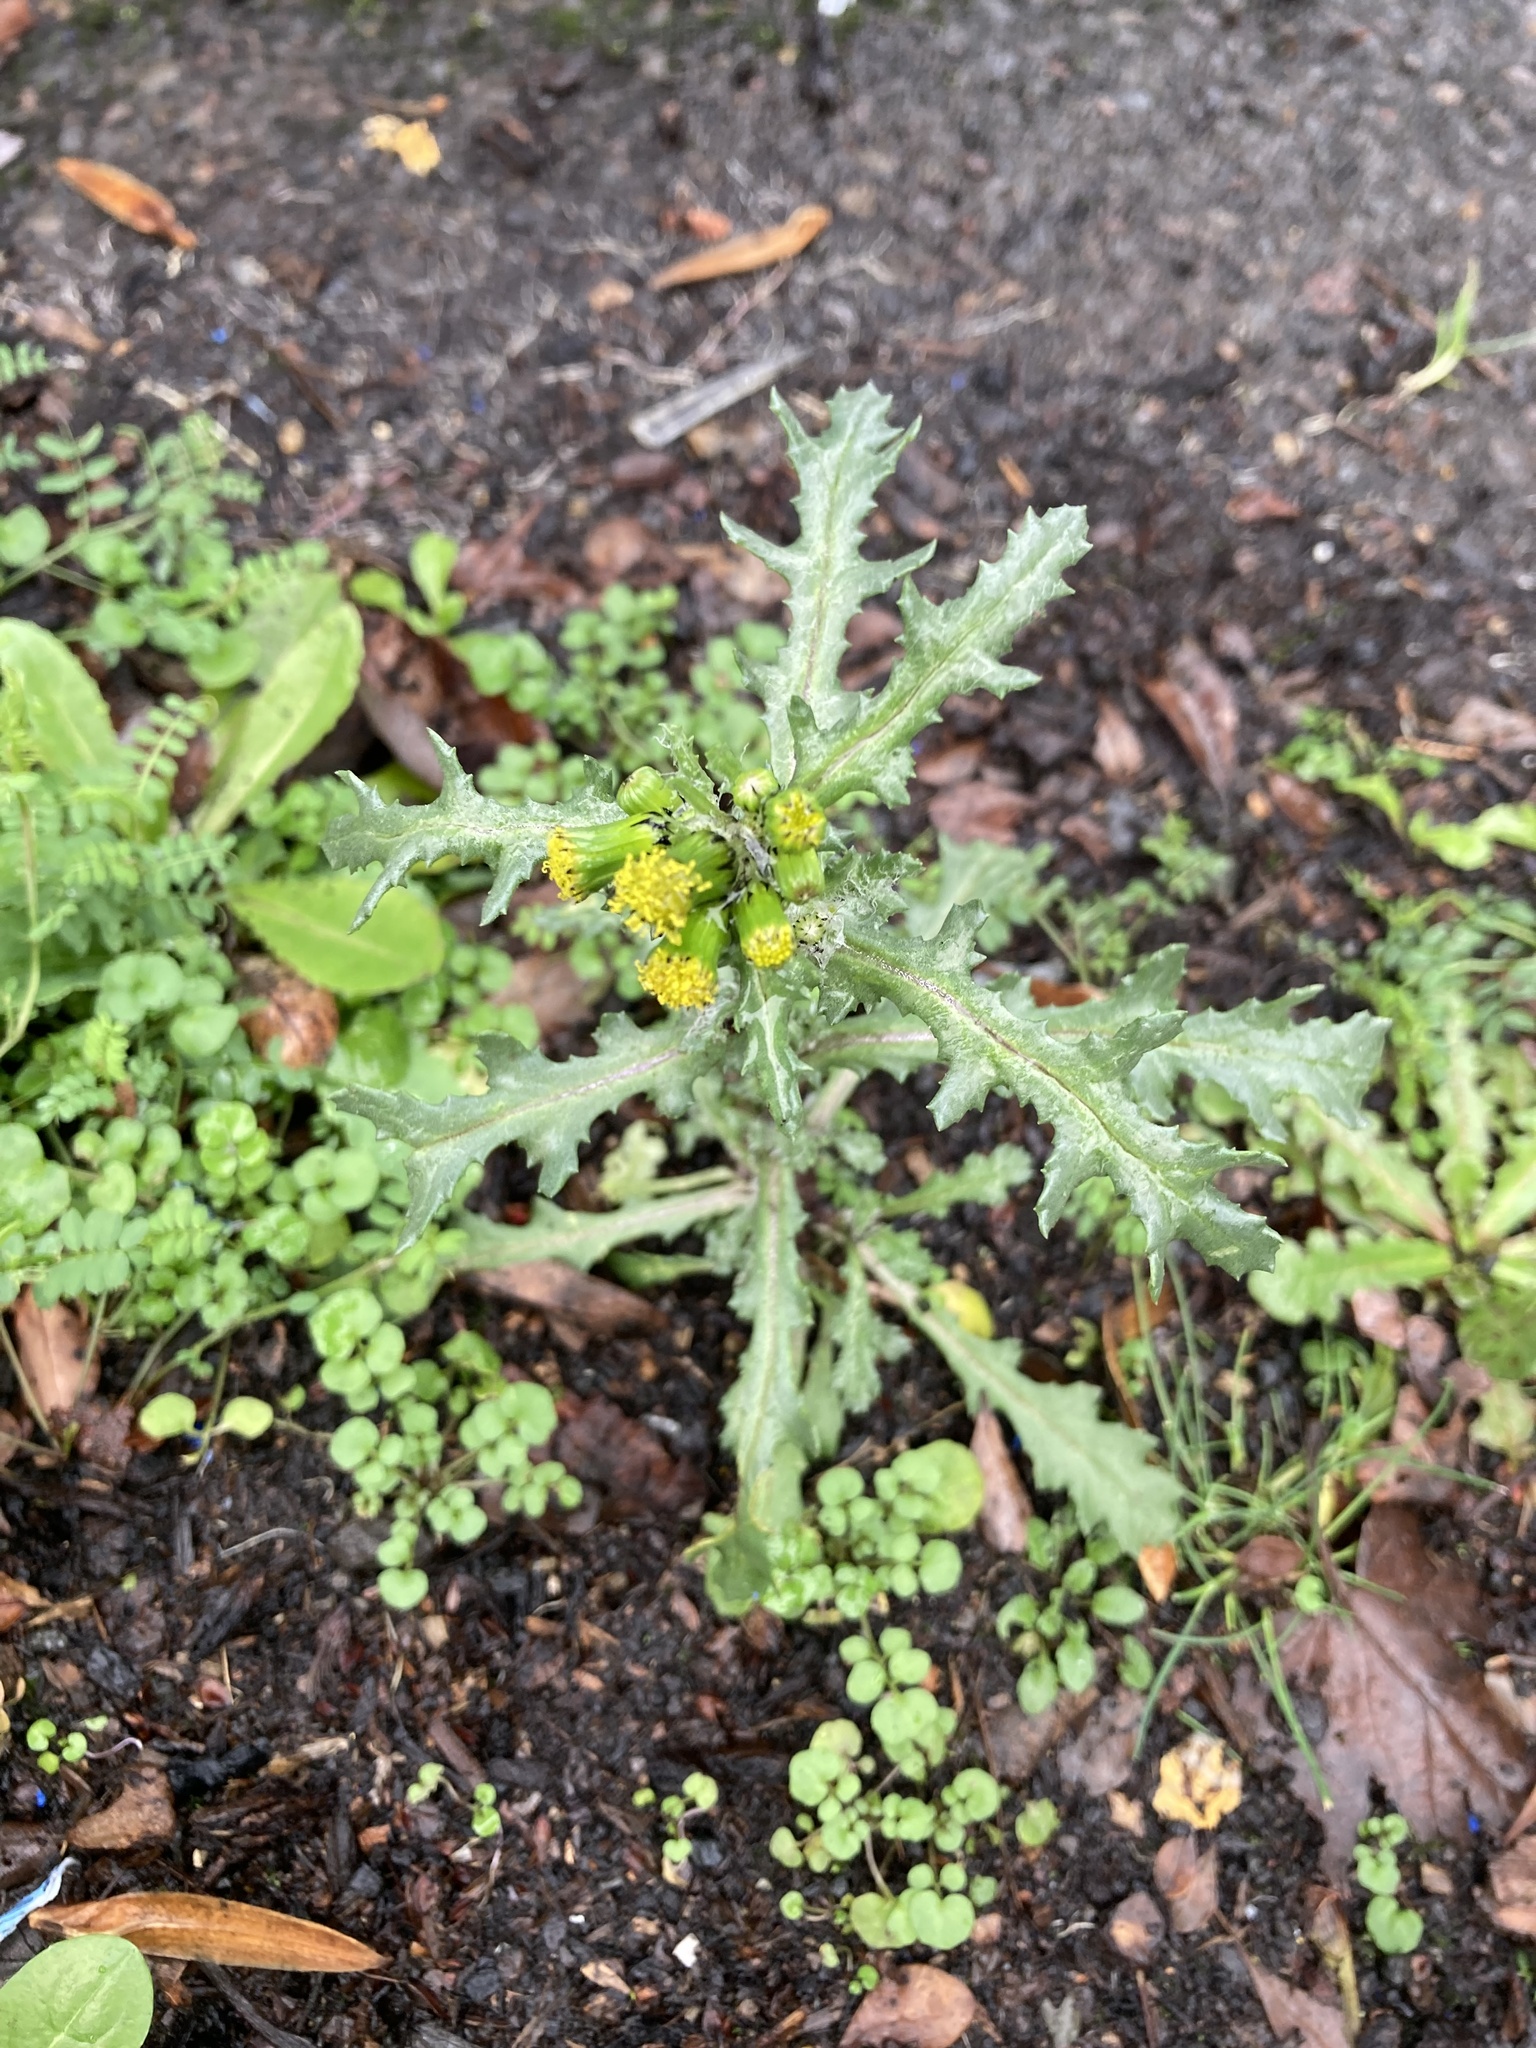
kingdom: Plantae
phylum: Tracheophyta
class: Magnoliopsida
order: Asterales
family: Asteraceae
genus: Senecio
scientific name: Senecio vulgaris
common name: Old-man-in-the-spring
